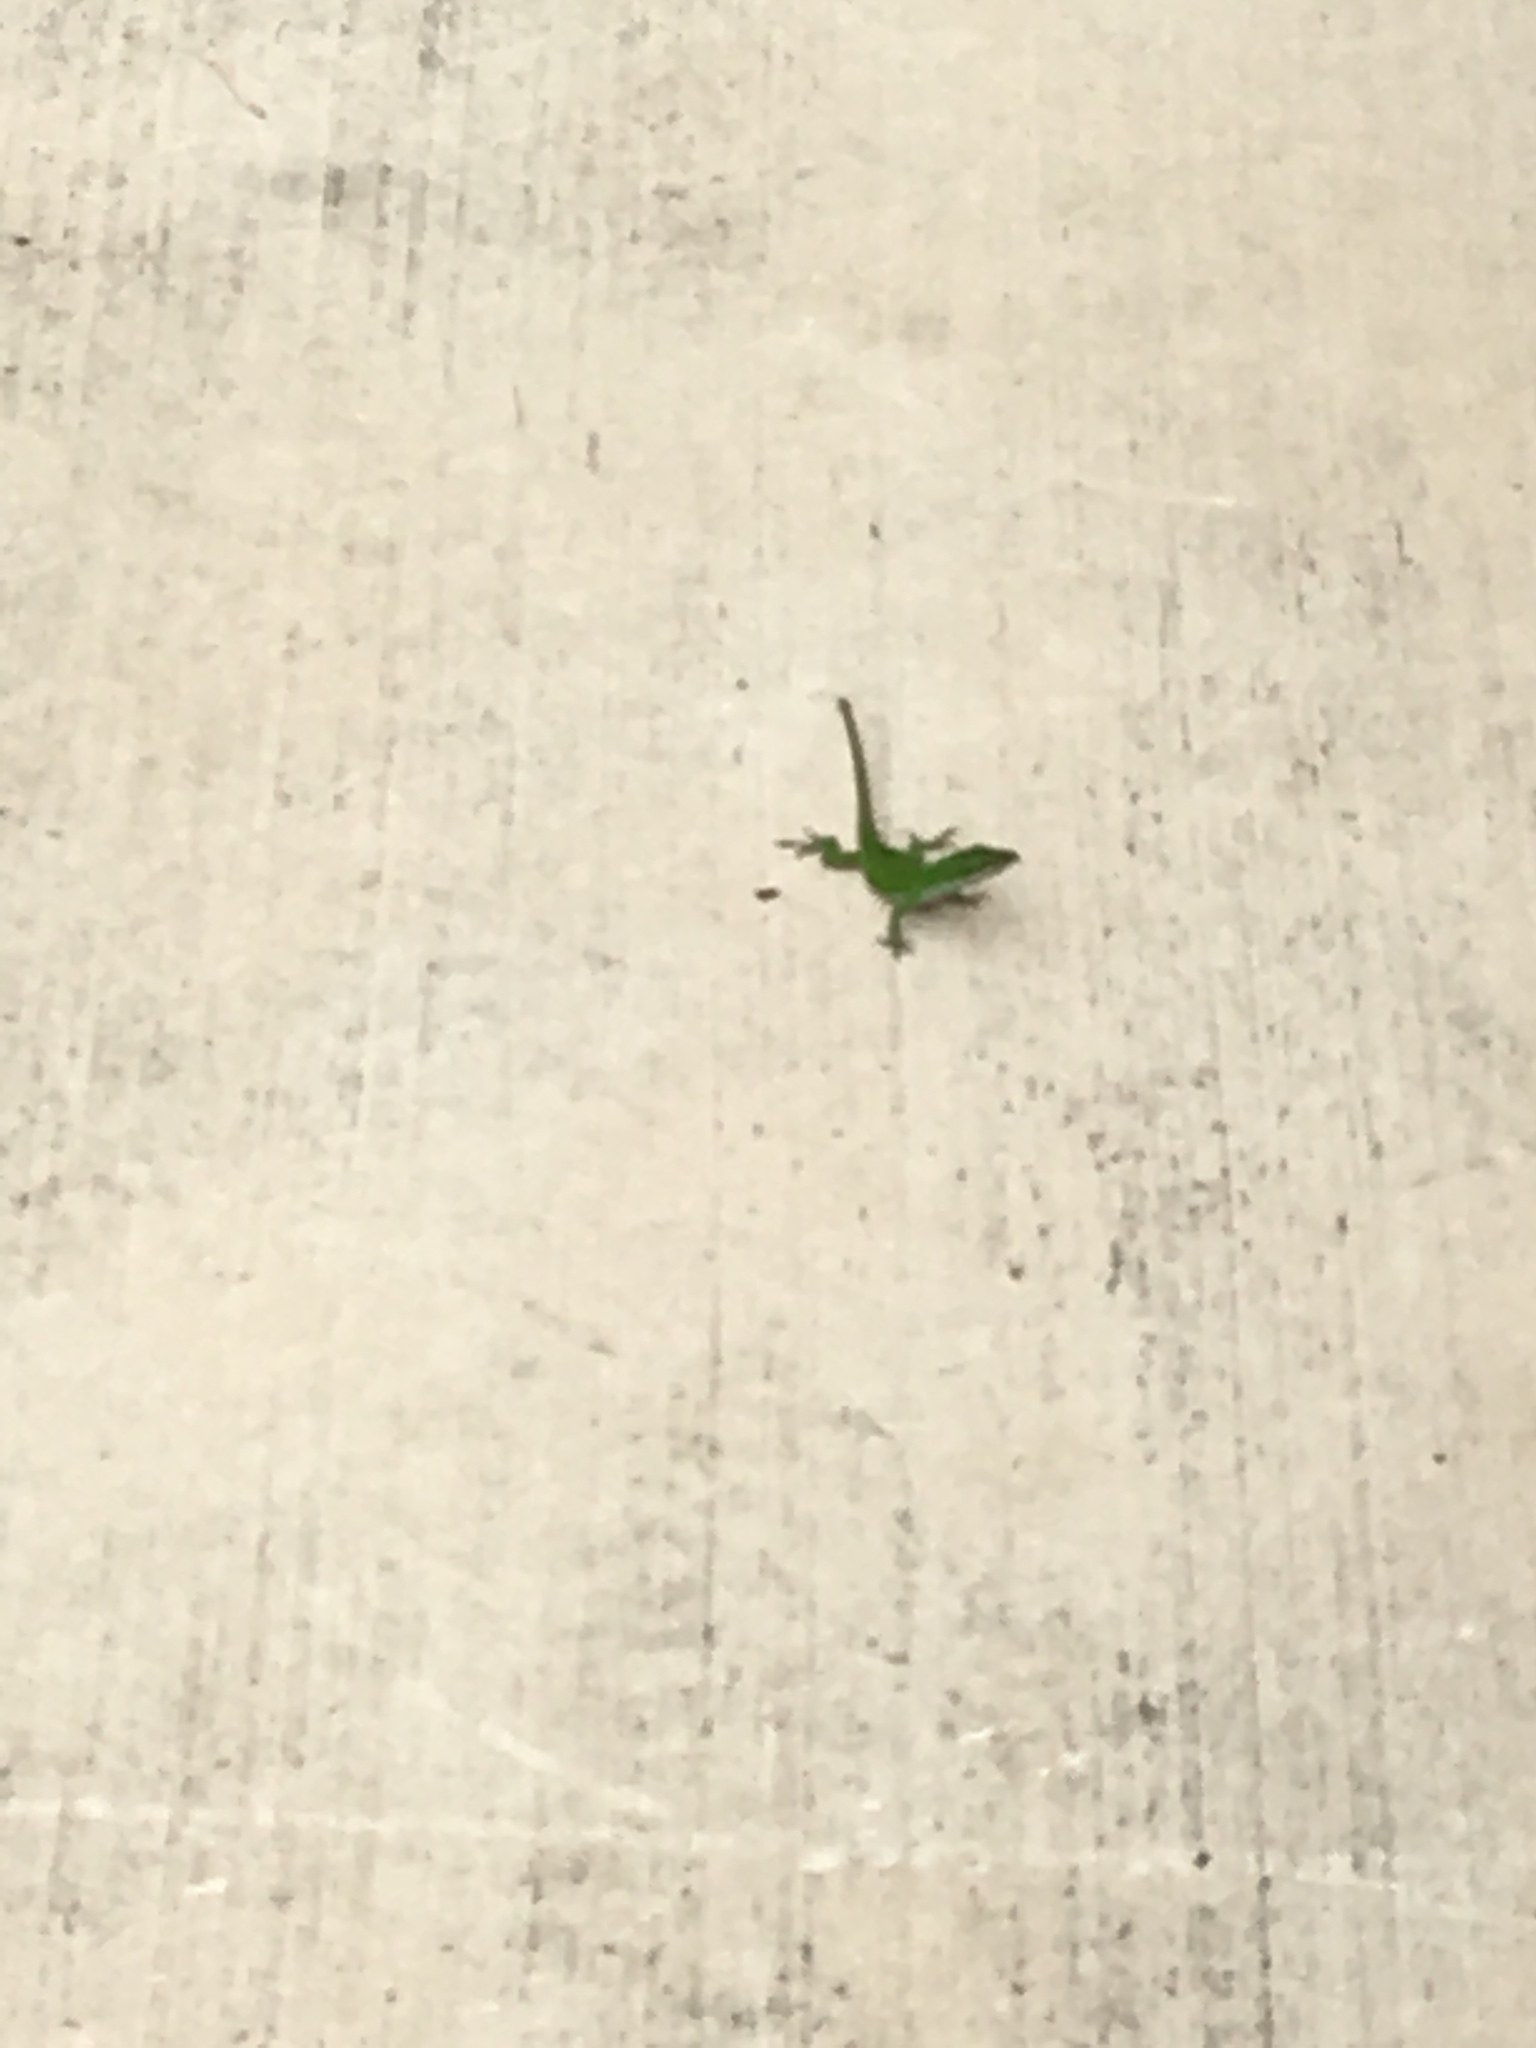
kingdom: Animalia
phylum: Chordata
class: Squamata
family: Dactyloidae
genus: Anolis
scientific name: Anolis carolinensis
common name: Green anole
